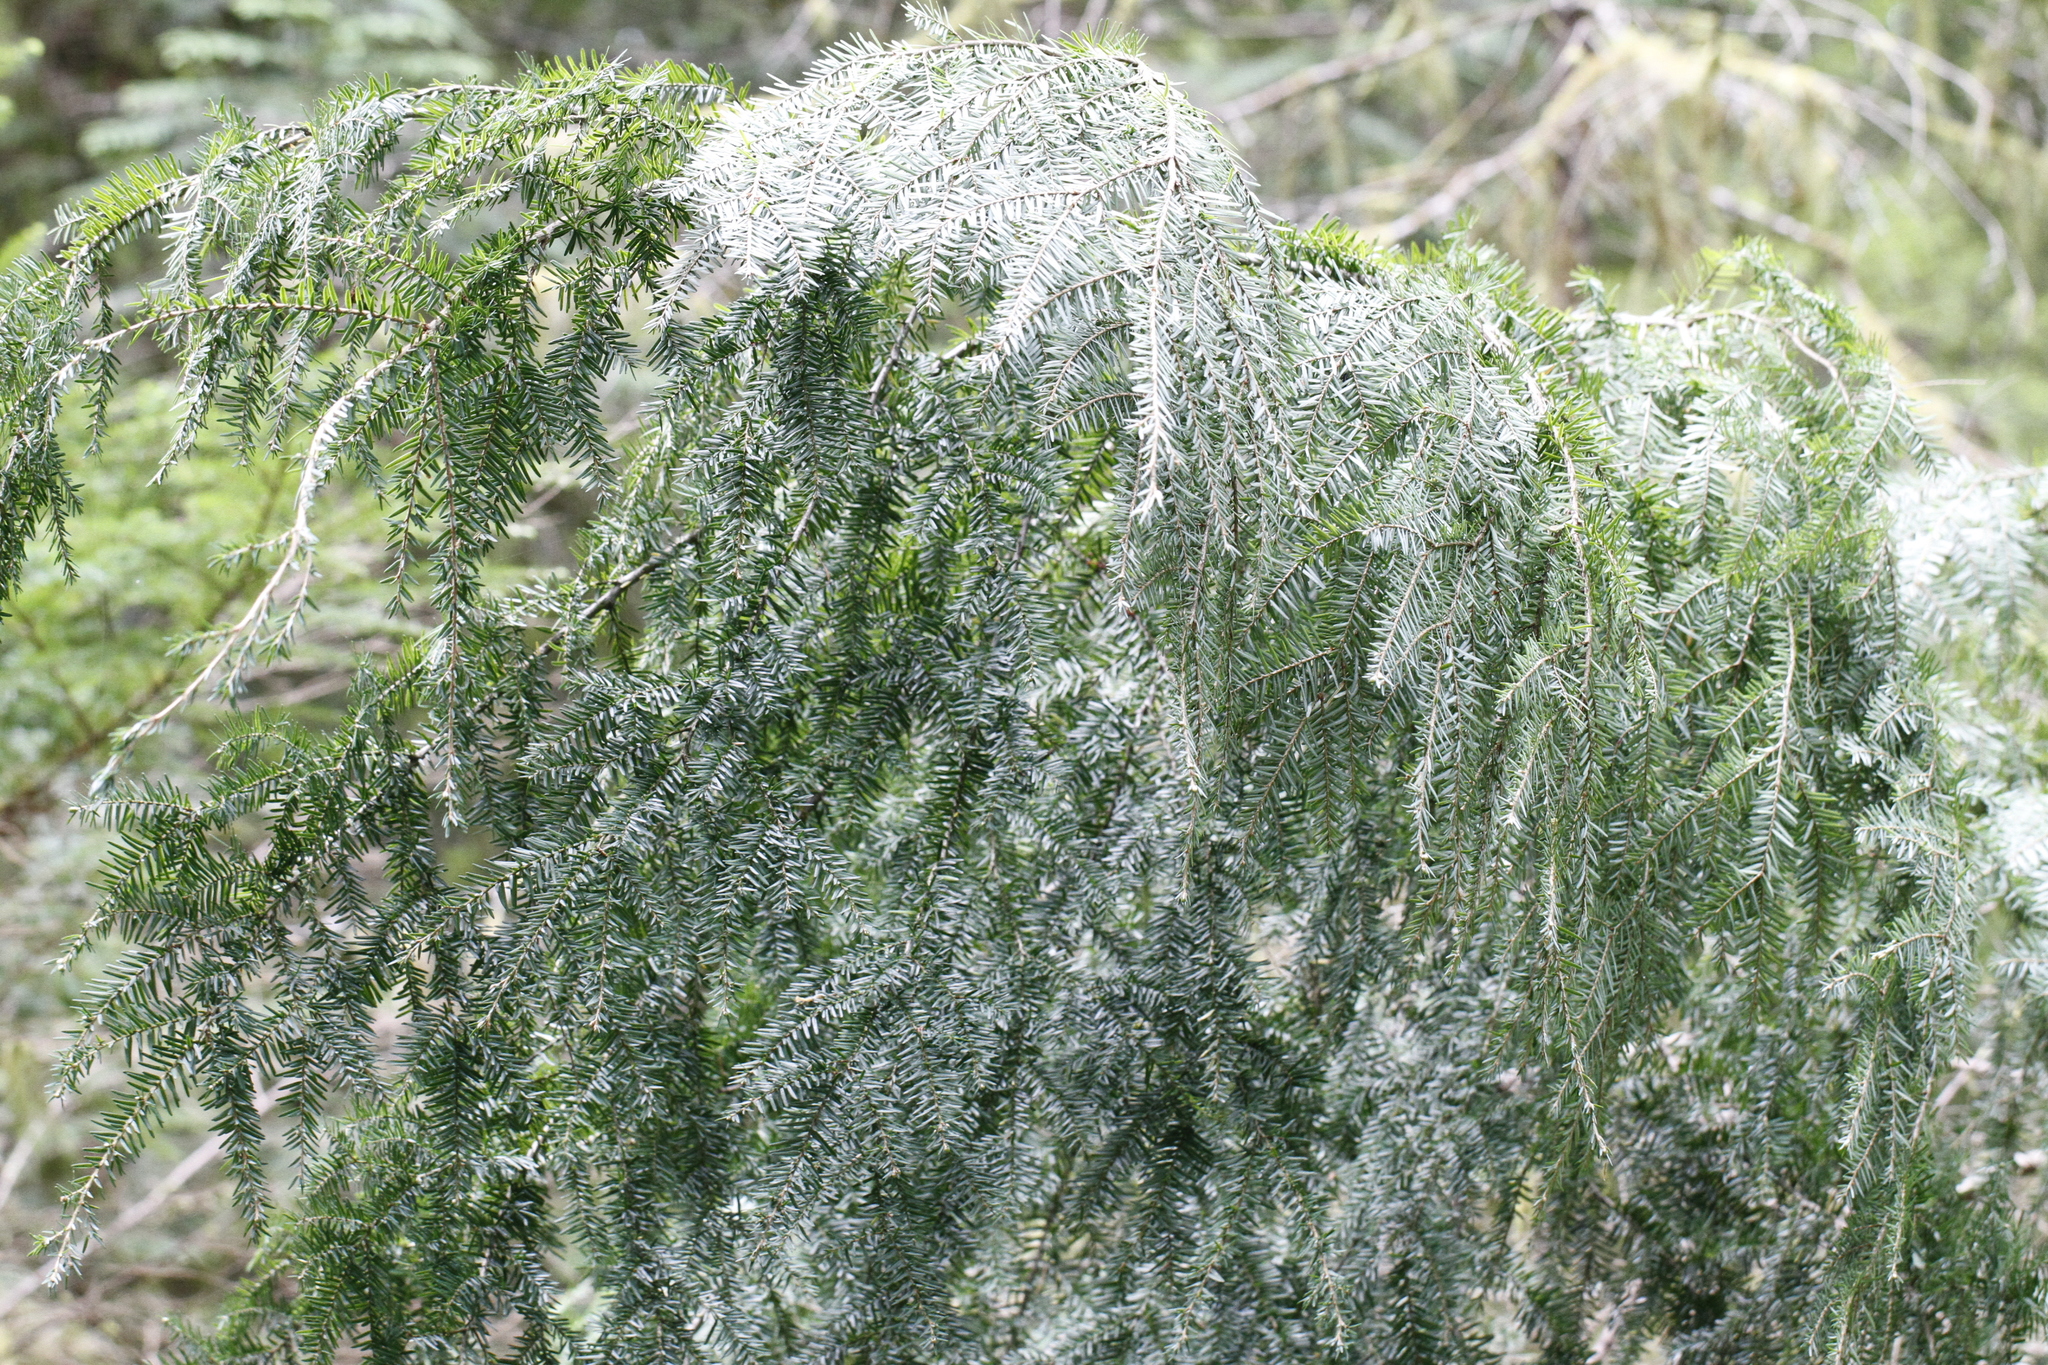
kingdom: Plantae
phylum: Tracheophyta
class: Pinopsida
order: Pinales
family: Pinaceae
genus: Tsuga
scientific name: Tsuga heterophylla
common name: Western hemlock
